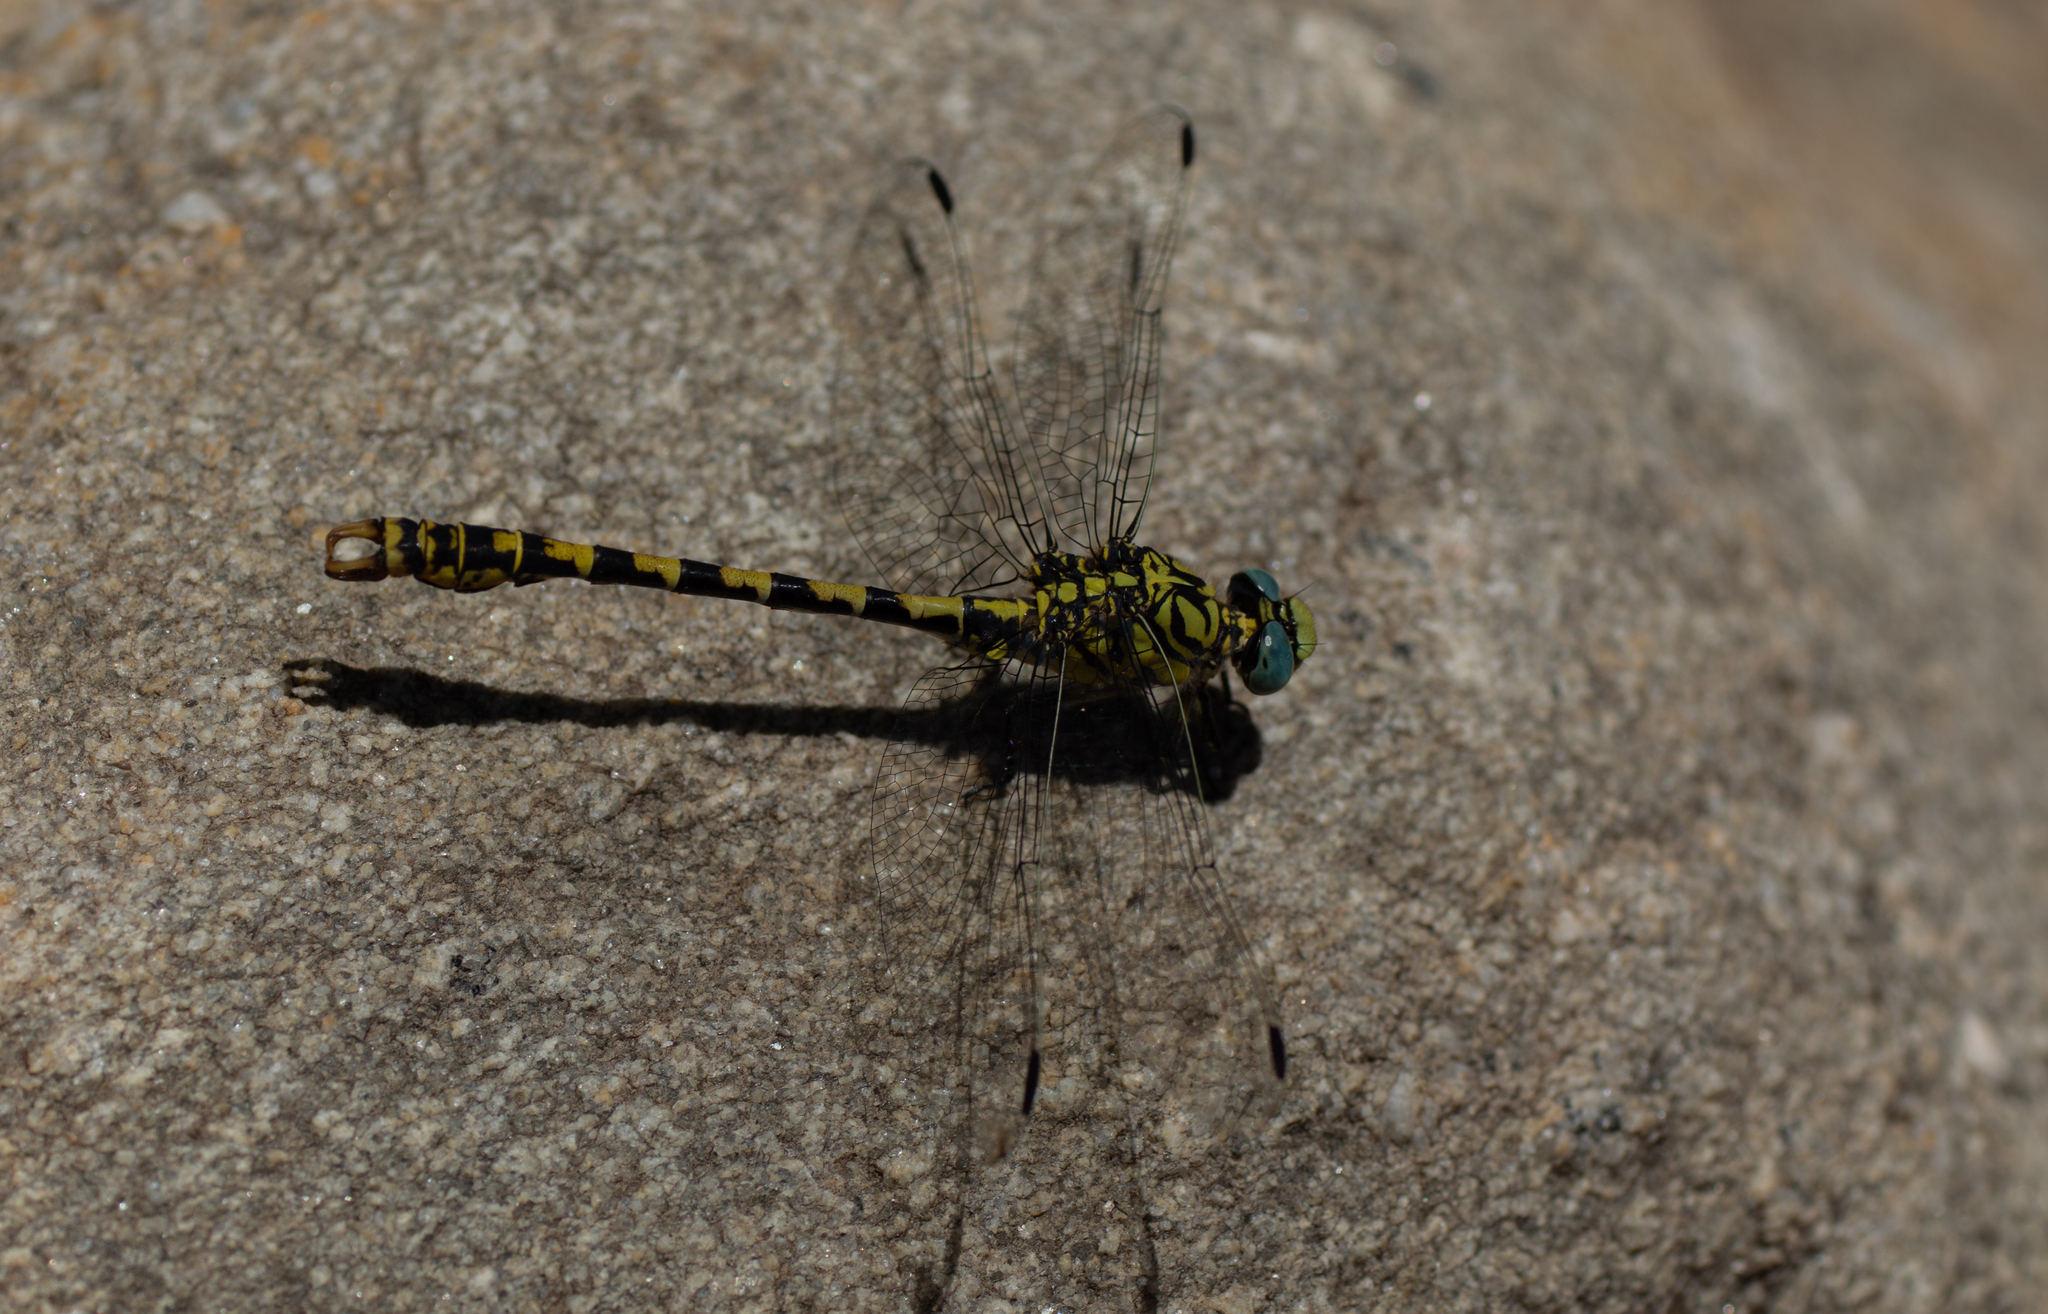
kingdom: Animalia
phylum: Arthropoda
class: Insecta
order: Odonata
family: Gomphidae
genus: Onychogomphus
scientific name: Onychogomphus forcipatus
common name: Small pincertail
